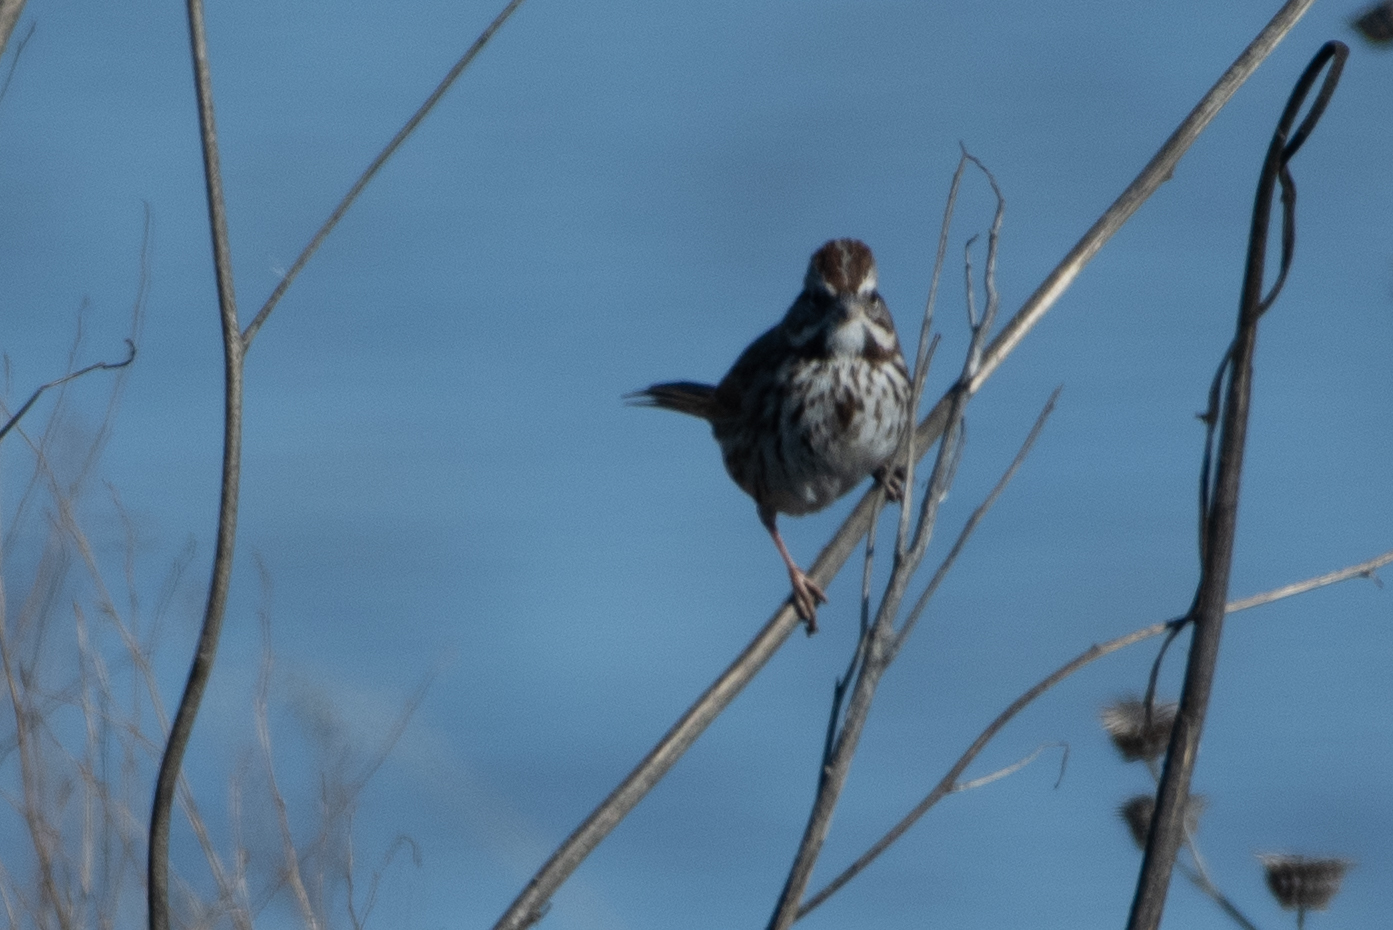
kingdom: Animalia
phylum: Chordata
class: Aves
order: Passeriformes
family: Passerellidae
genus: Melospiza
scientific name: Melospiza melodia
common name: Song sparrow
